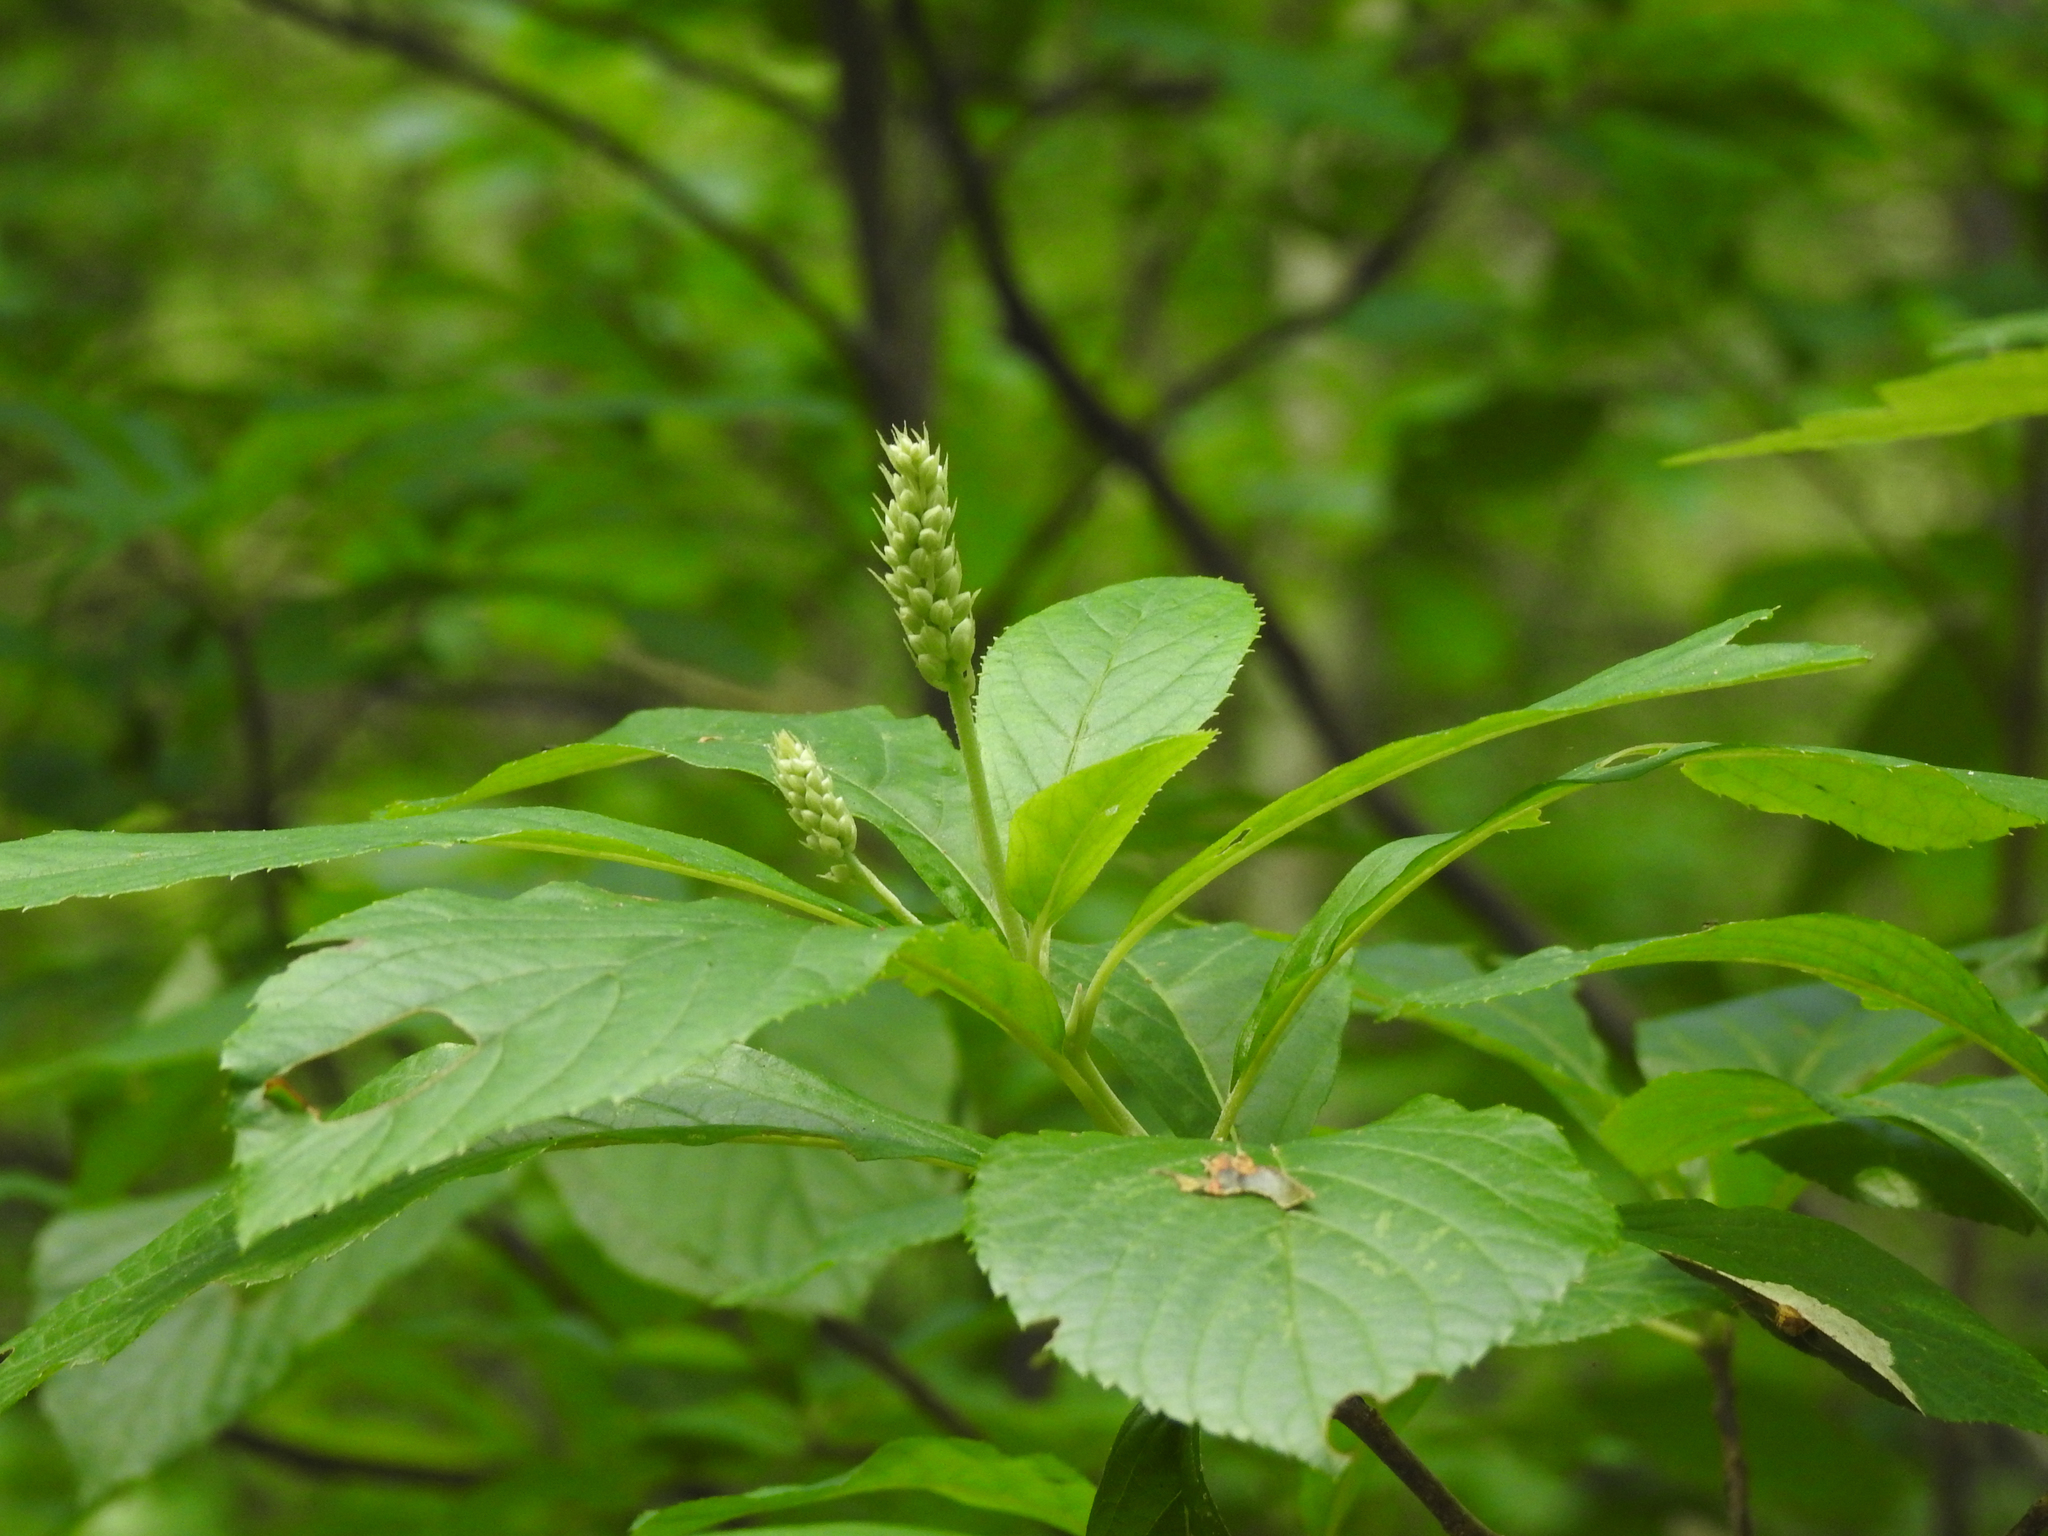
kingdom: Plantae
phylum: Tracheophyta
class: Magnoliopsida
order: Ericales
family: Clethraceae
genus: Clethra
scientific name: Clethra alnifolia
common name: Sweet pepperbush
